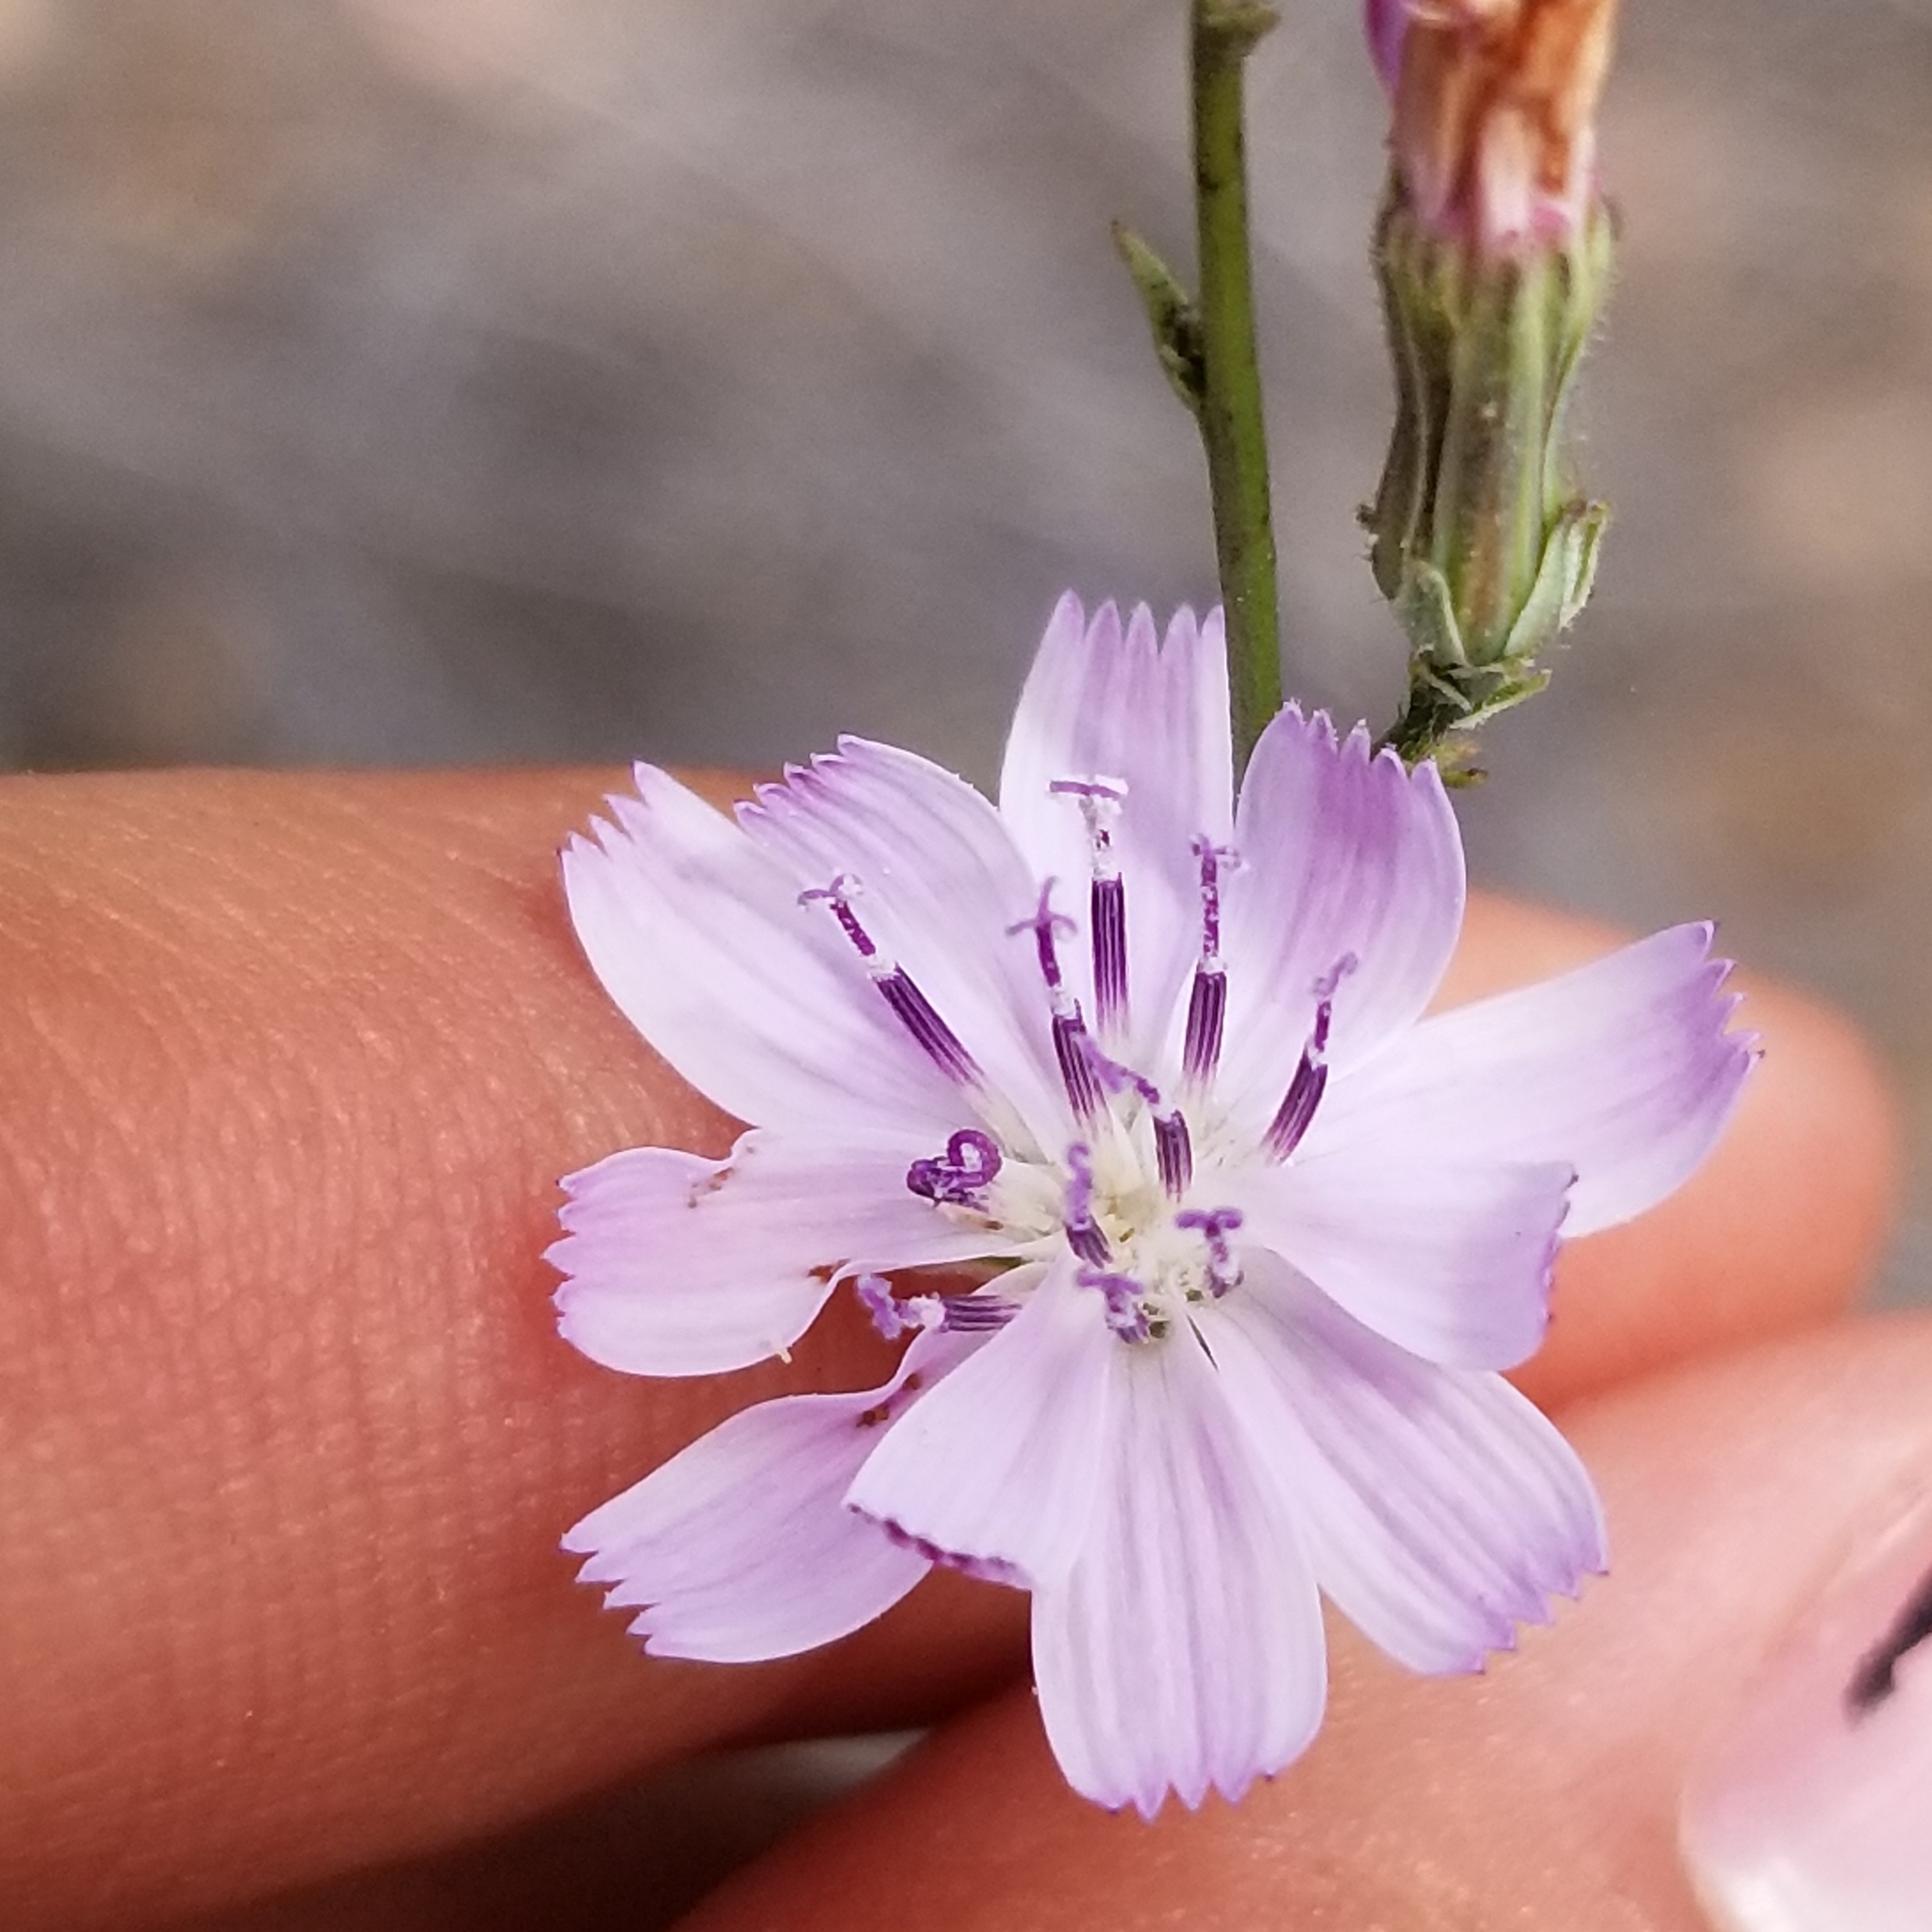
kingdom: Plantae
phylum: Tracheophyta
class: Magnoliopsida
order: Asterales
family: Asteraceae
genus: Stephanomeria
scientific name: Stephanomeria diegensis
